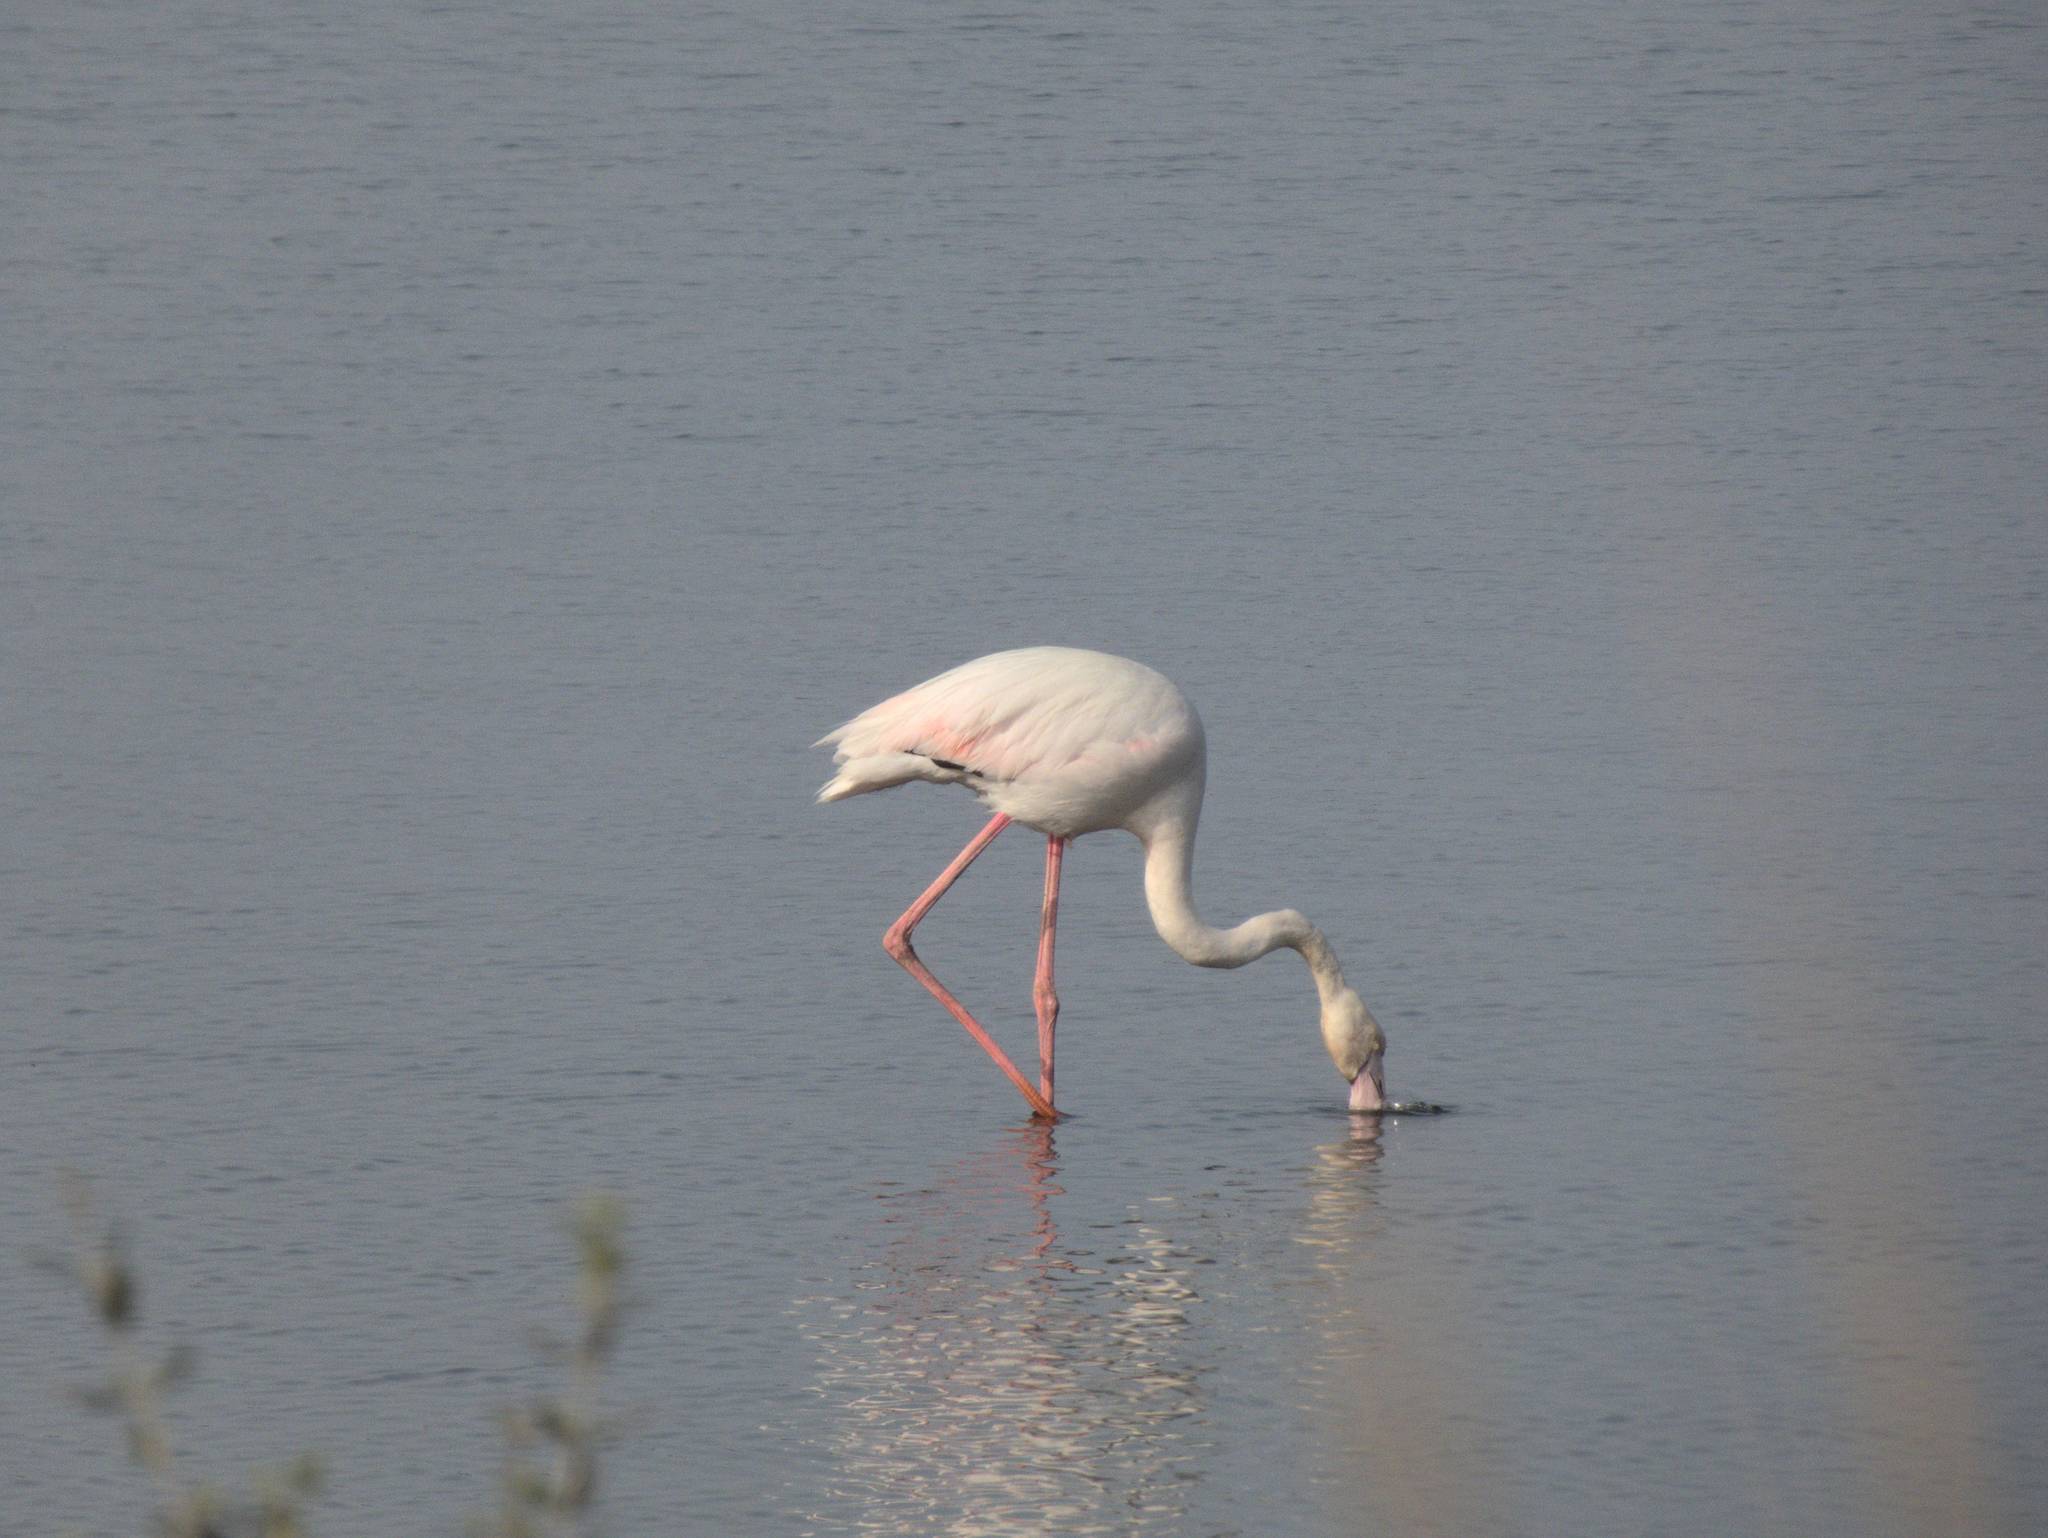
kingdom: Animalia
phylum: Chordata
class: Aves
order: Phoenicopteriformes
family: Phoenicopteridae
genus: Phoenicopterus
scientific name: Phoenicopterus roseus
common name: Greater flamingo
